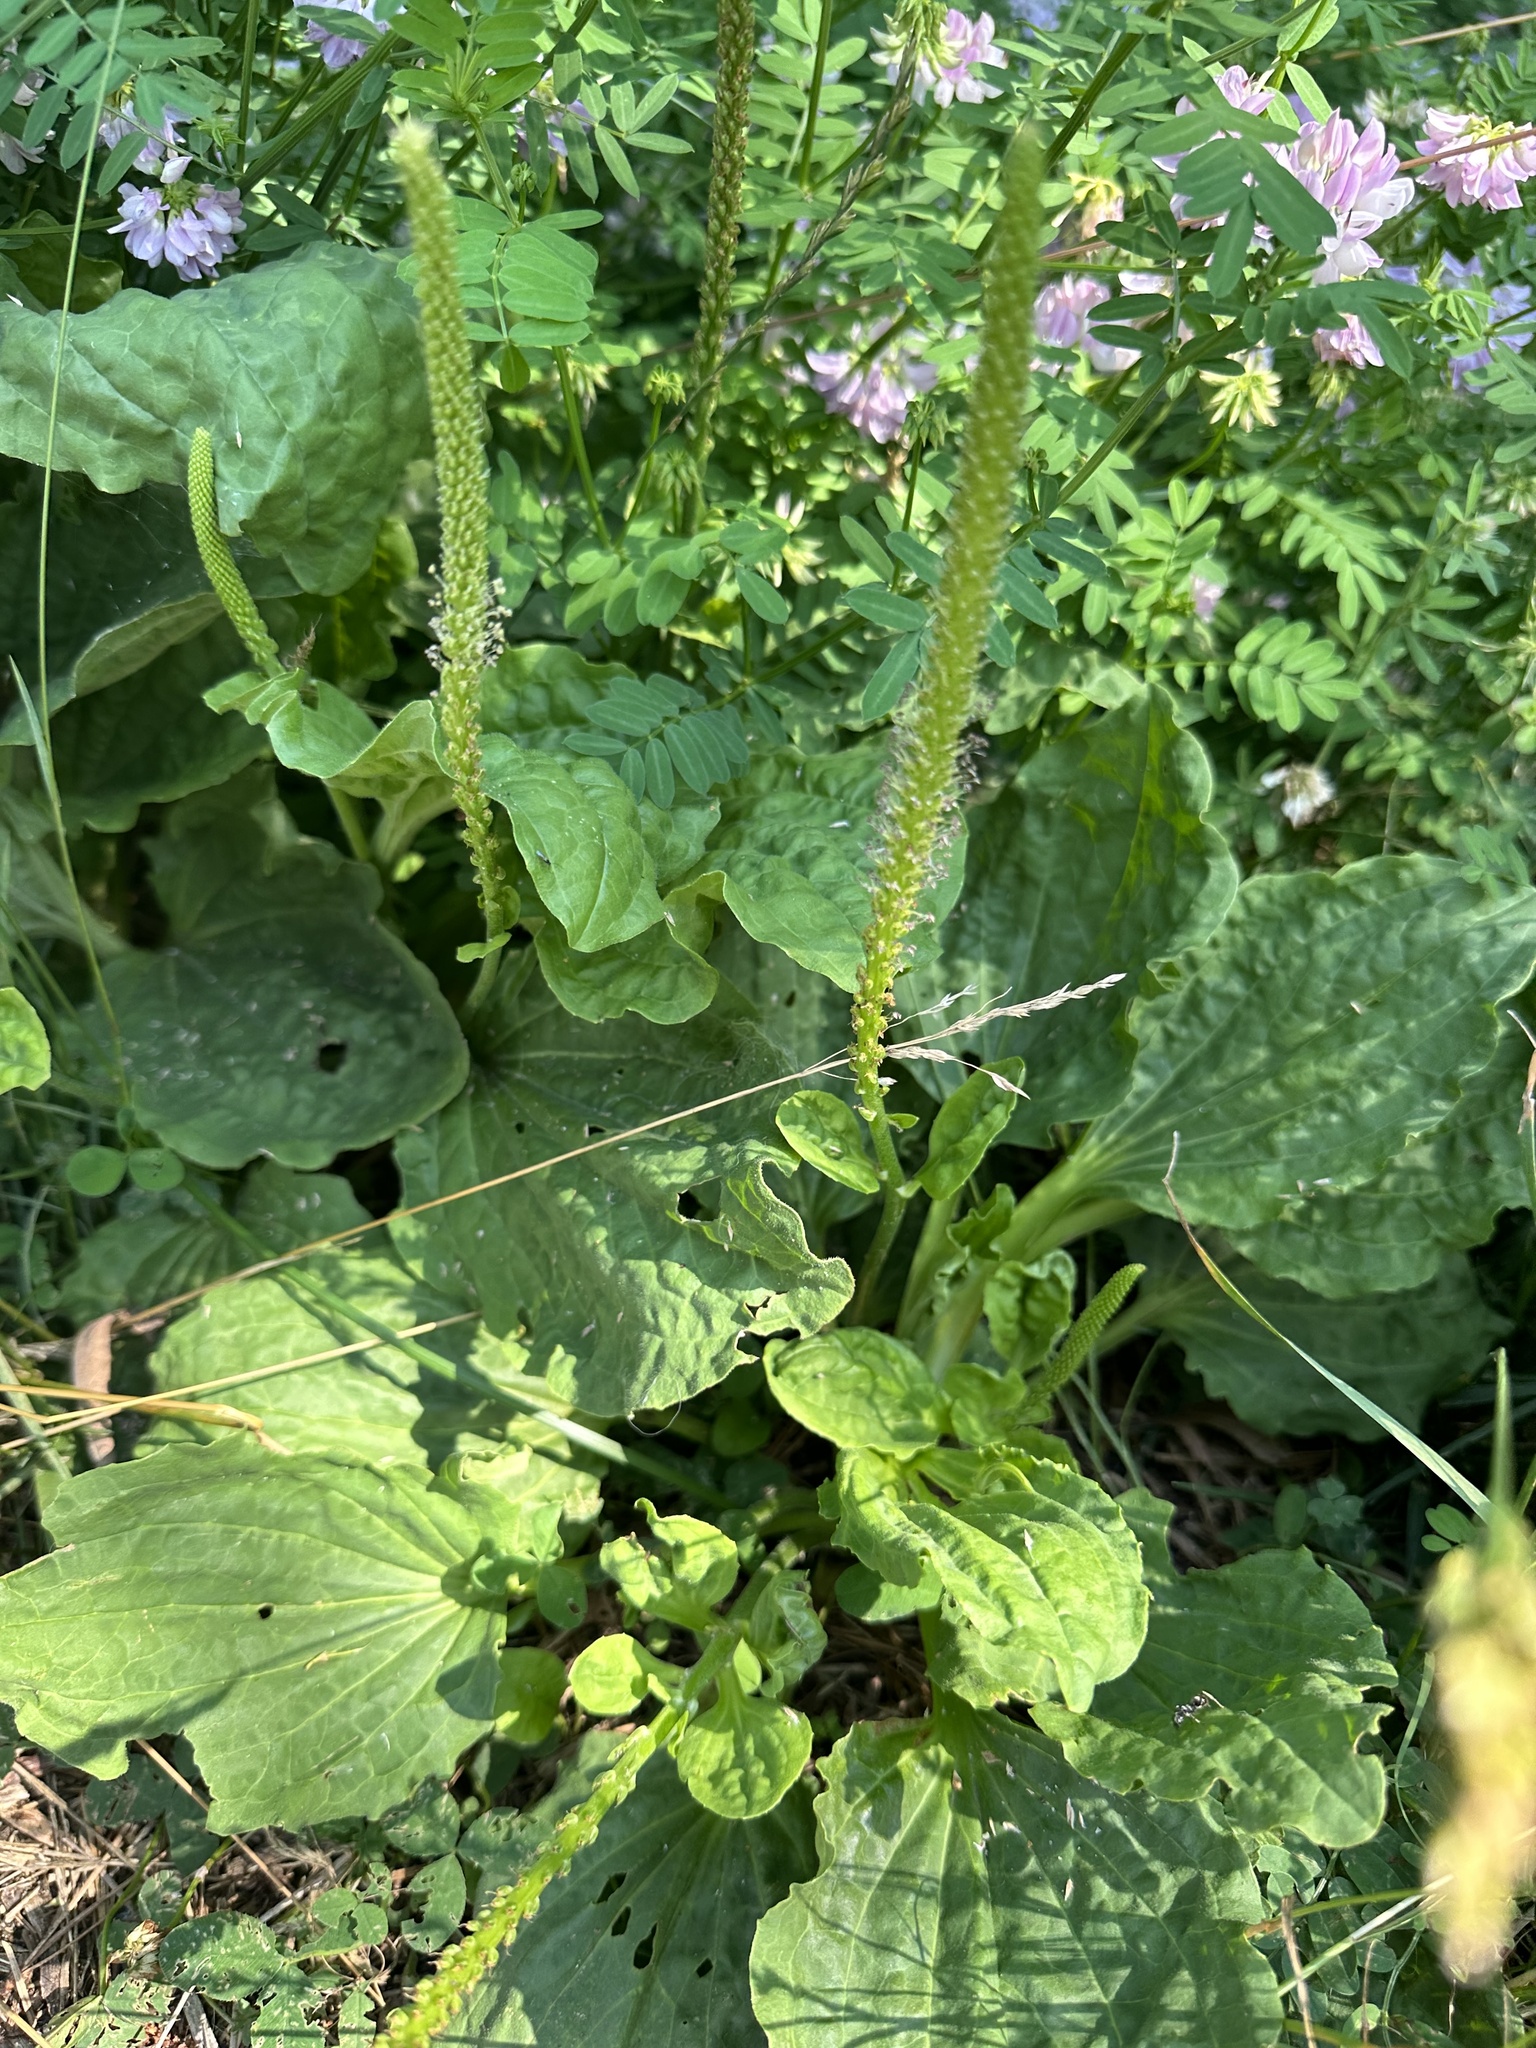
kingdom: Plantae
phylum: Tracheophyta
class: Magnoliopsida
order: Lamiales
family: Plantaginaceae
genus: Plantago
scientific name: Plantago major
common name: Common plantain
